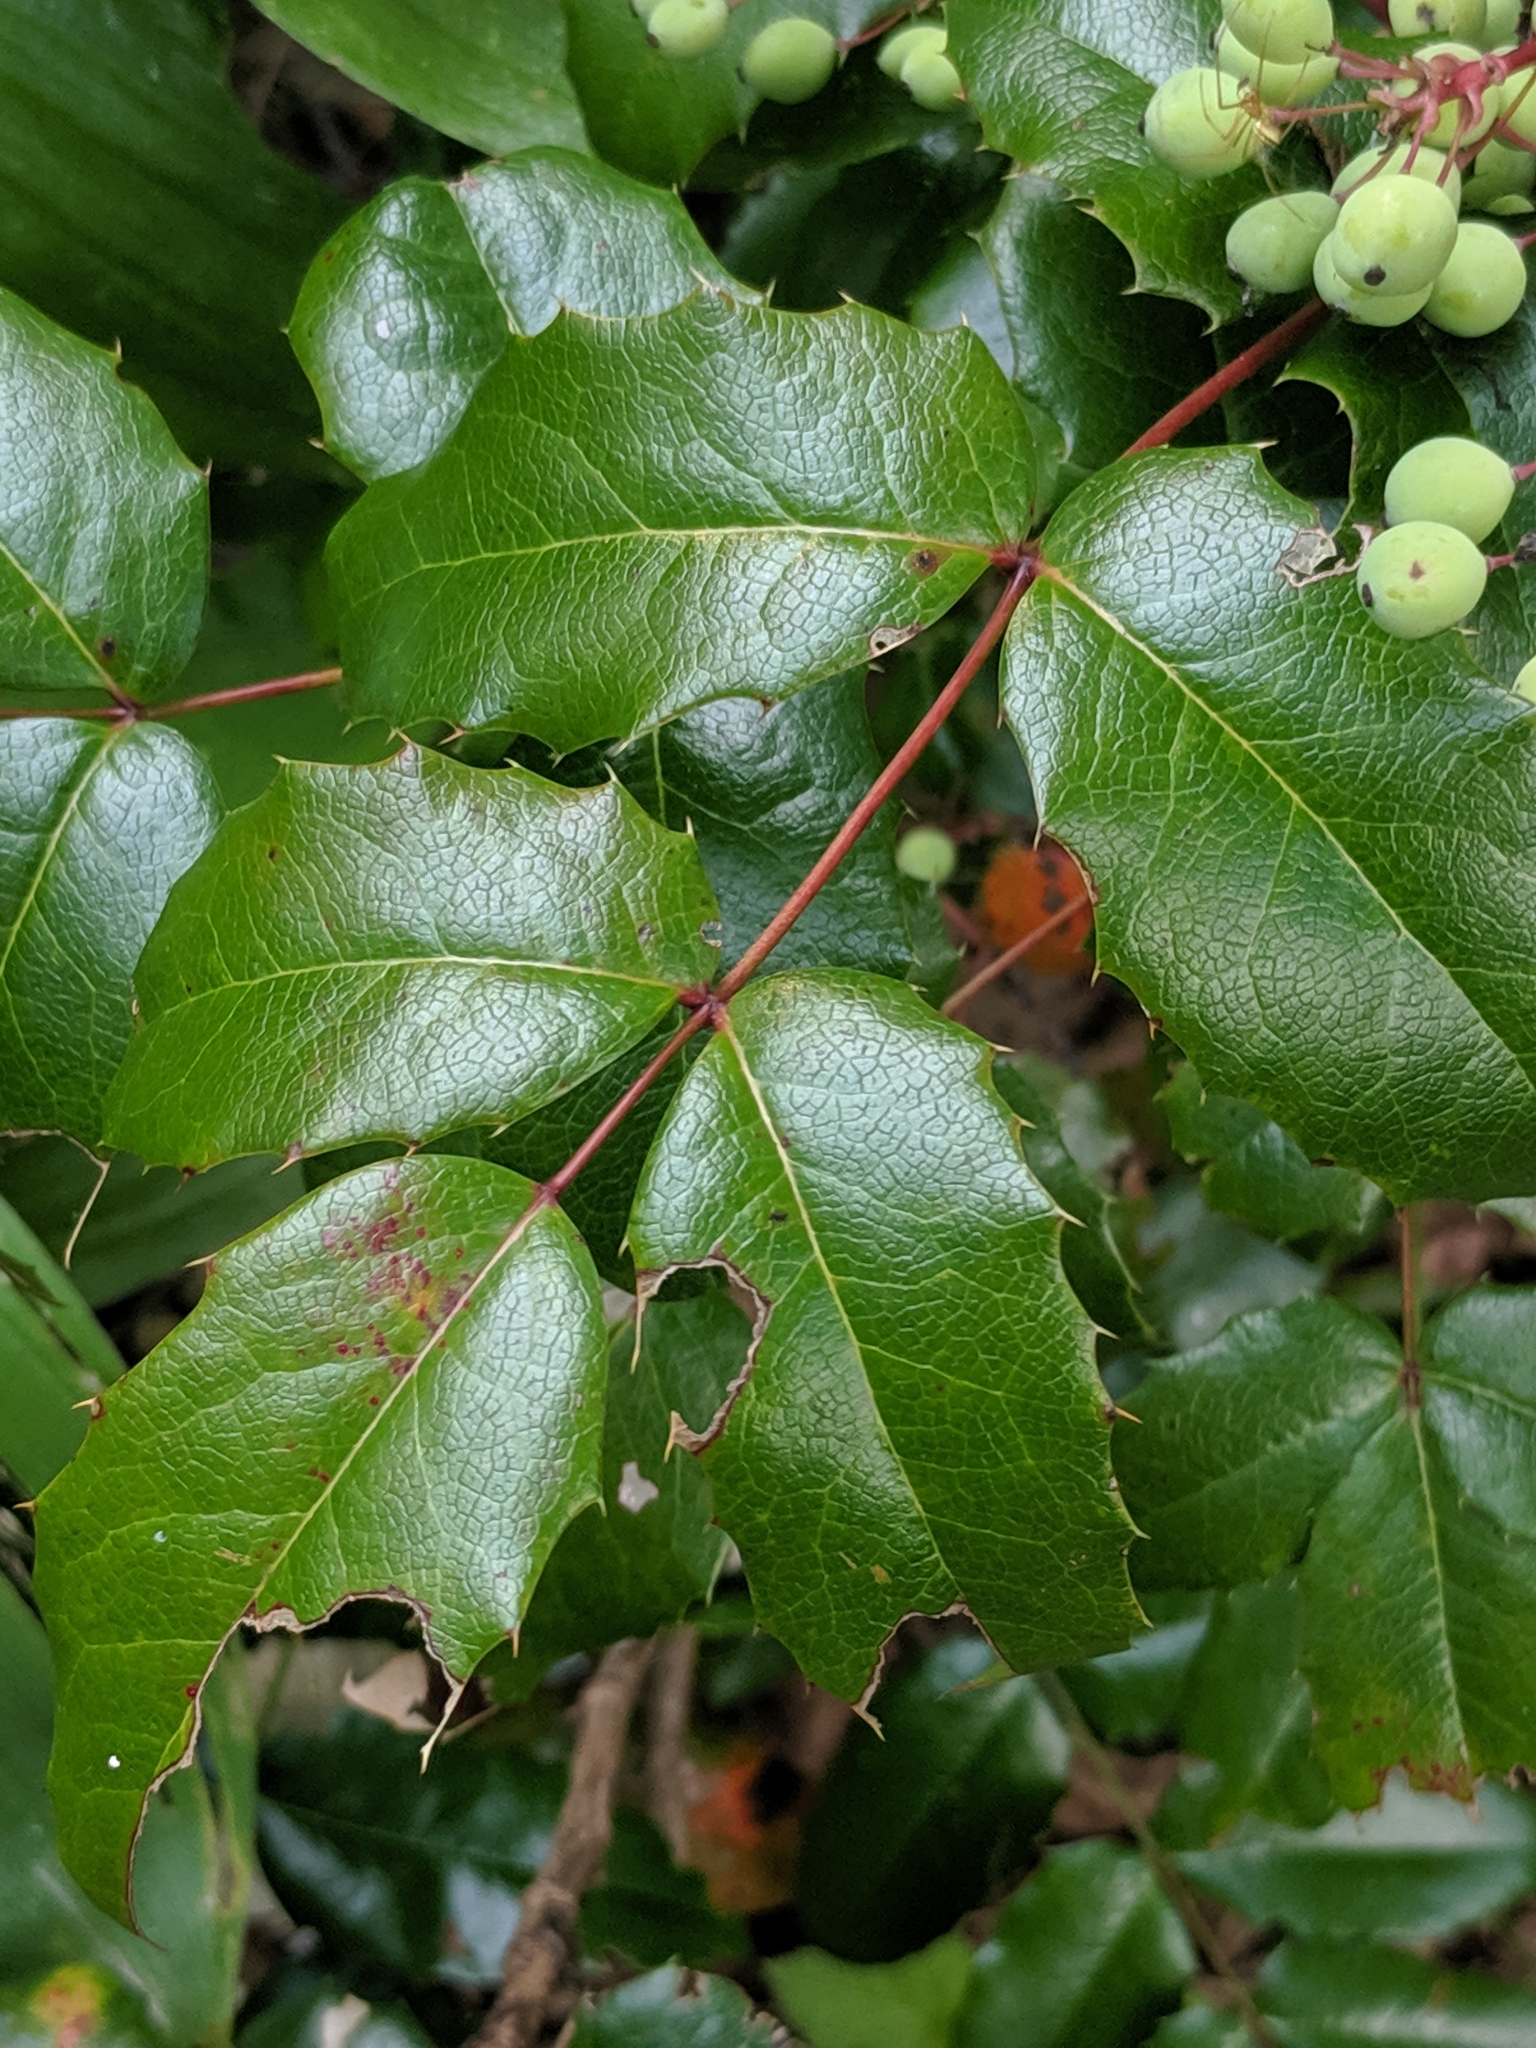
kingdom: Plantae
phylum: Tracheophyta
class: Magnoliopsida
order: Ranunculales
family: Berberidaceae
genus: Mahonia
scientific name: Mahonia aquifolium
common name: Oregon-grape
